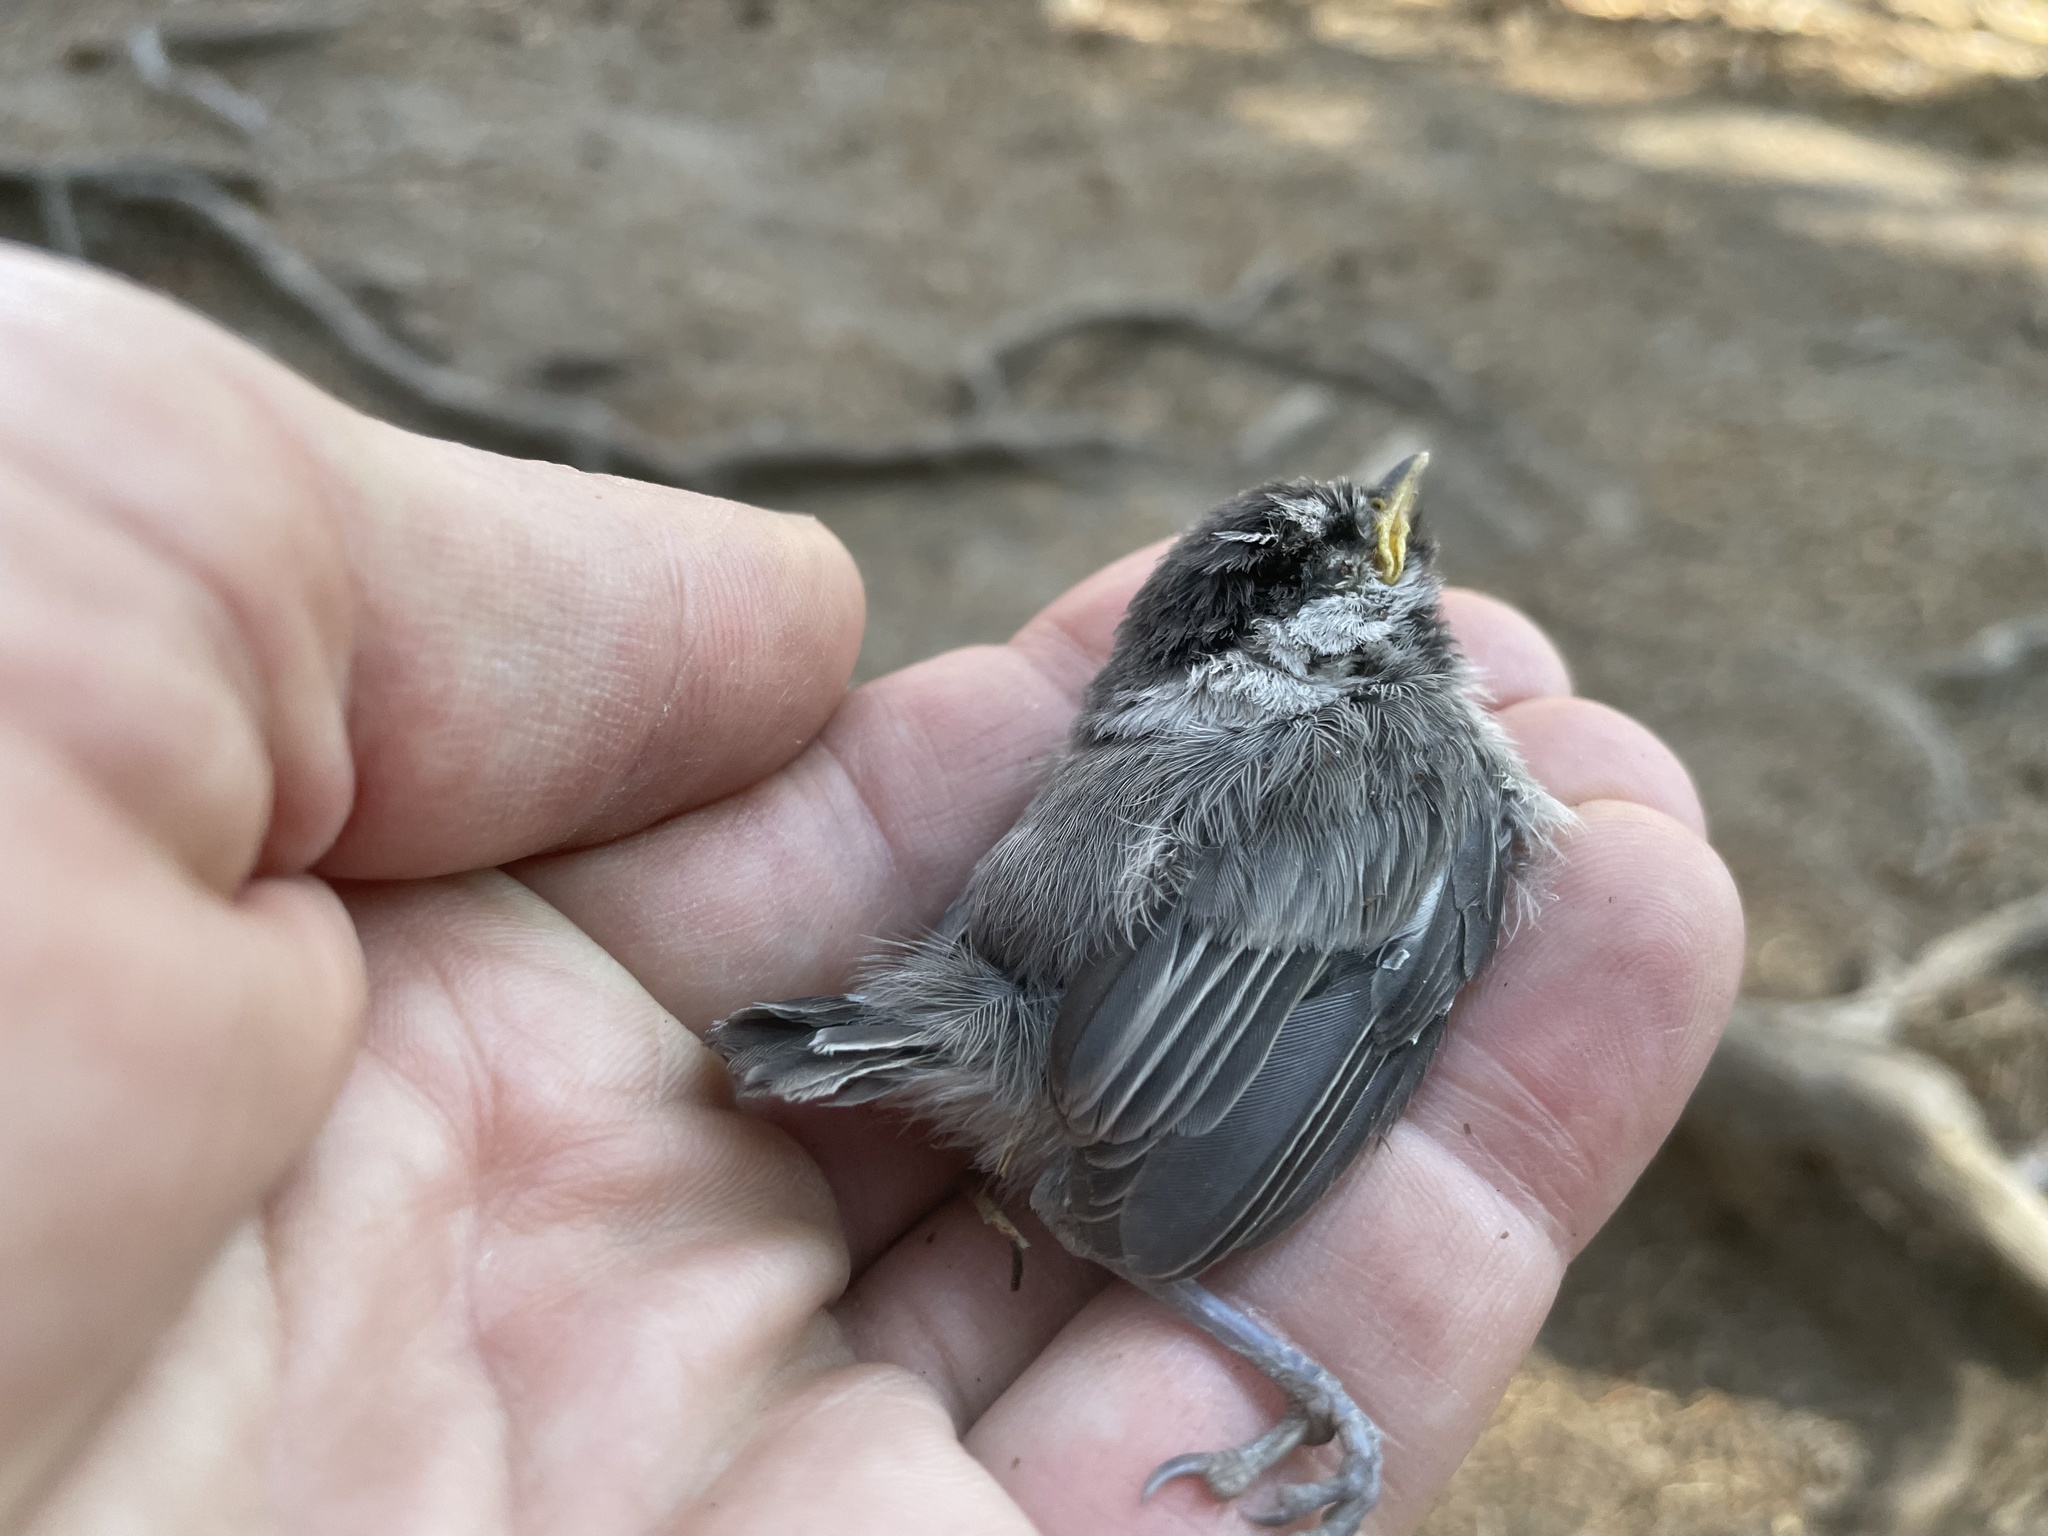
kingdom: Animalia
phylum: Chordata
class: Aves
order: Passeriformes
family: Paridae
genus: Poecile
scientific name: Poecile gambeli
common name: Mountain chickadee
